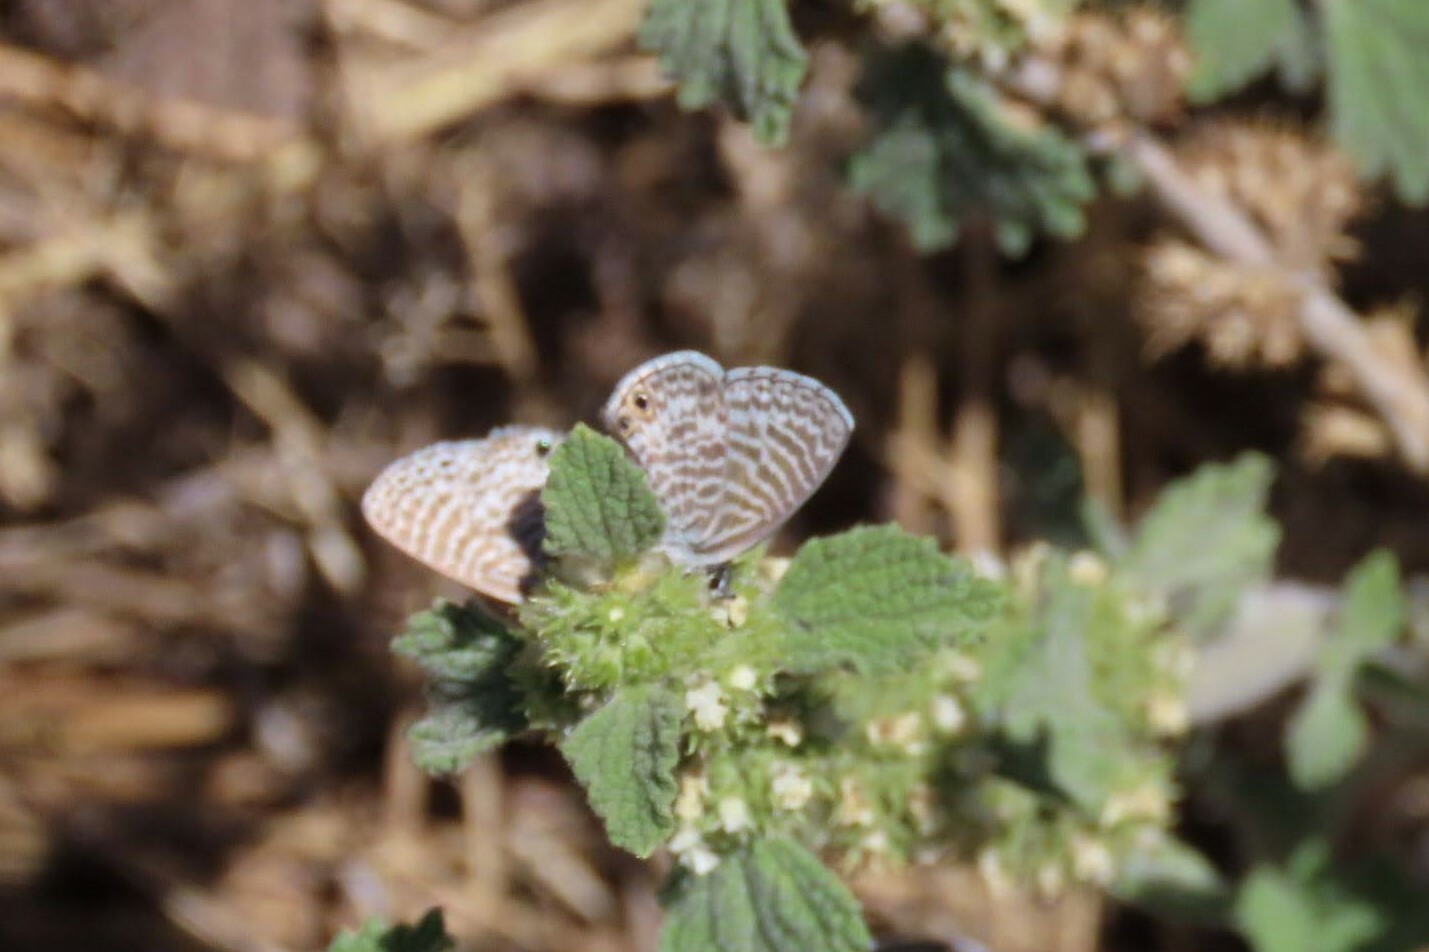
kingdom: Animalia
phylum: Arthropoda
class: Insecta
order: Lepidoptera
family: Lycaenidae
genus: Leptotes
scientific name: Leptotes marina
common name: Marine blue
